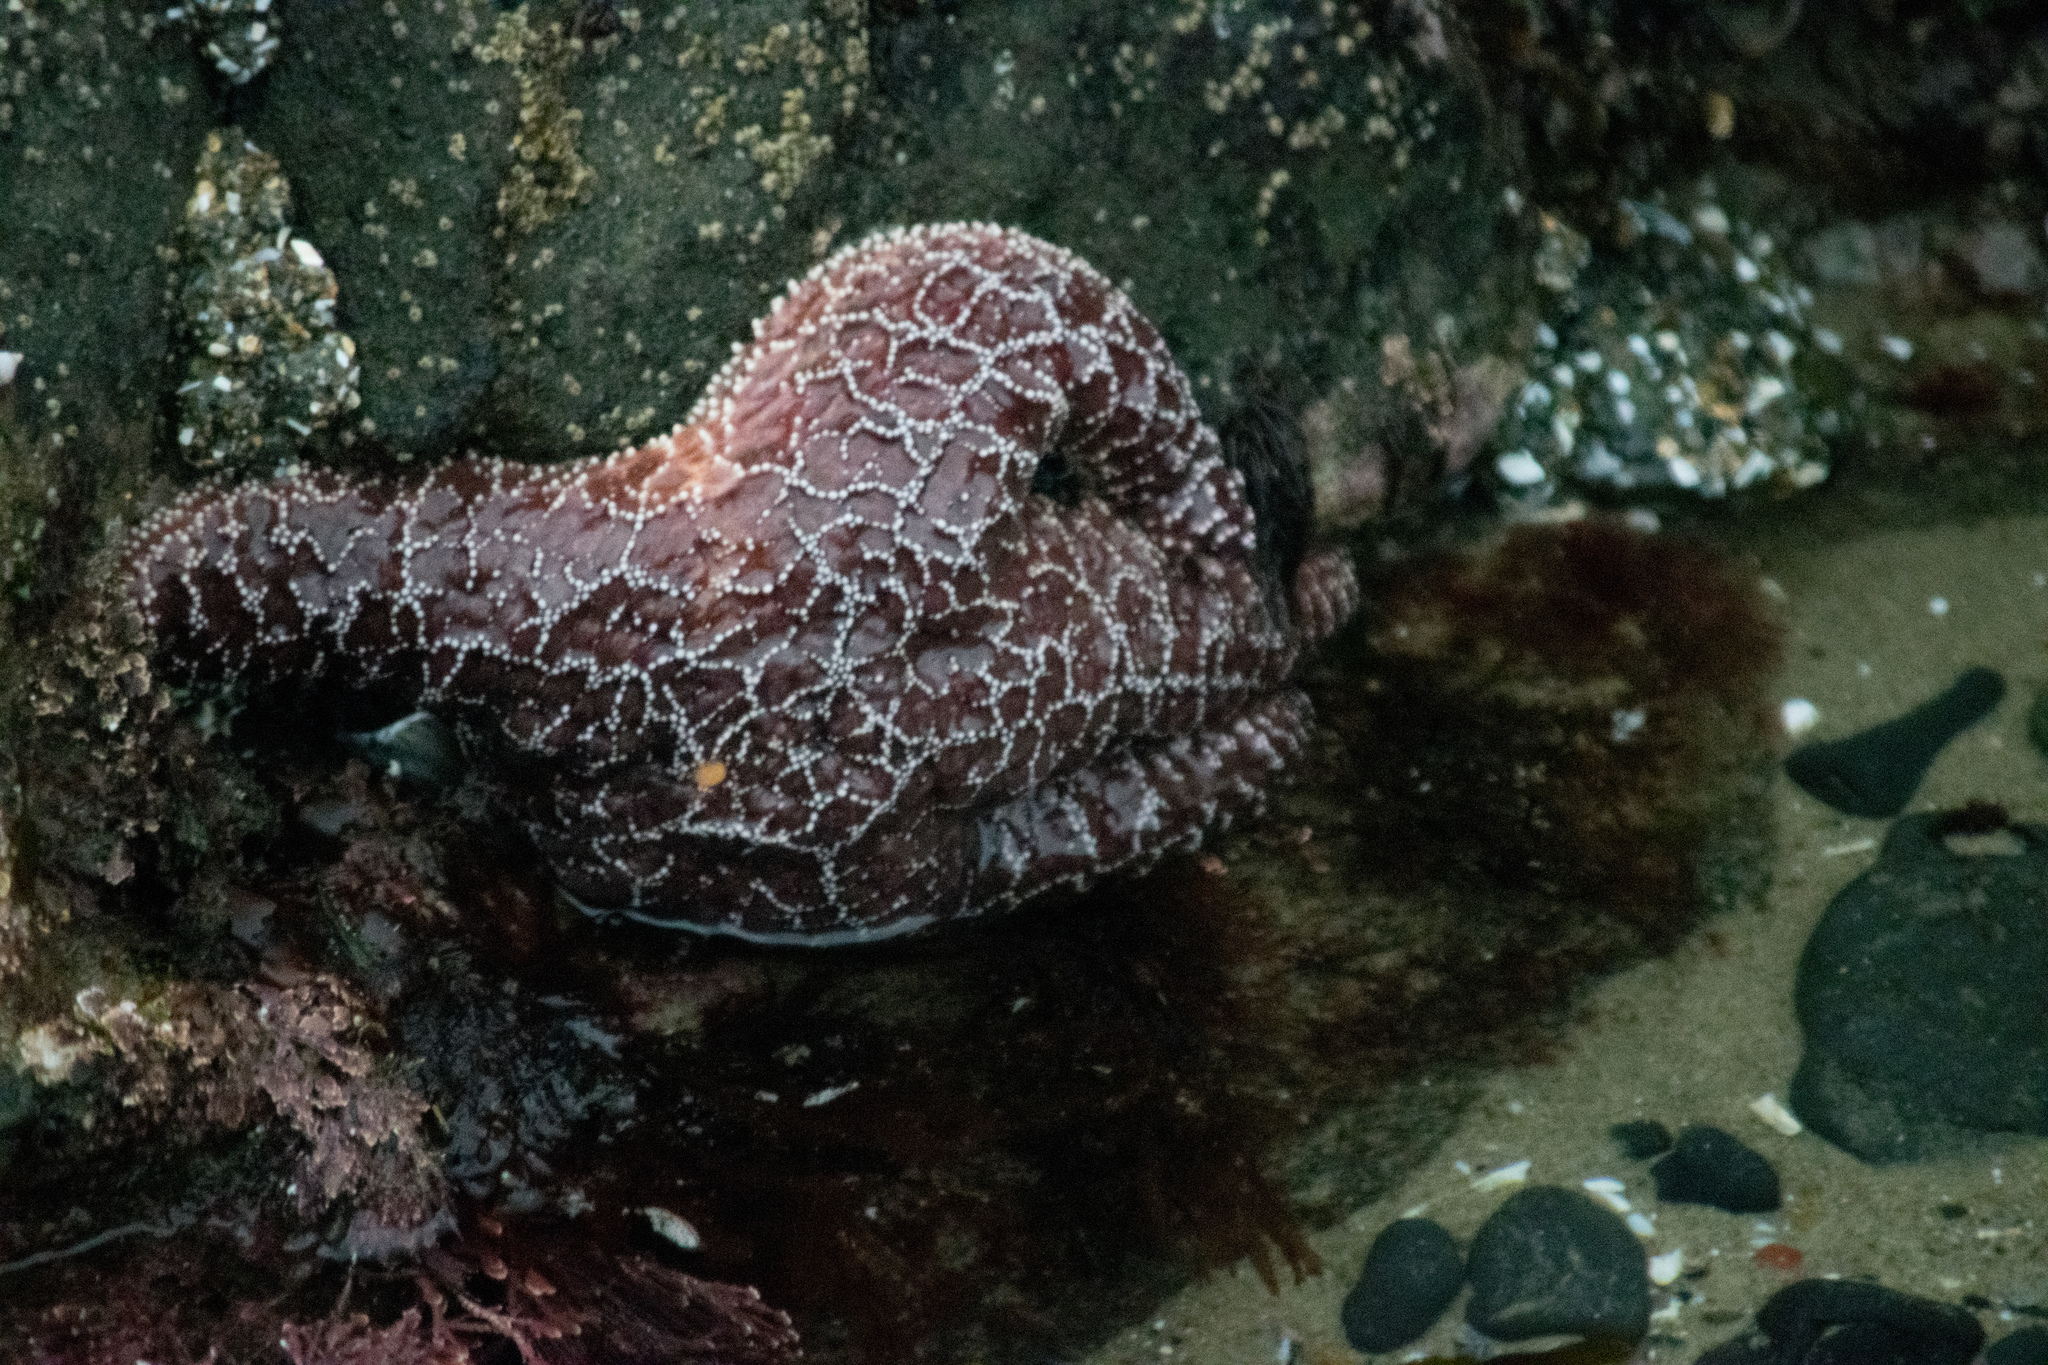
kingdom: Animalia
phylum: Echinodermata
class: Asteroidea
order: Forcipulatida
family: Asteriidae
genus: Pisaster
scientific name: Pisaster ochraceus
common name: Ochre stars
